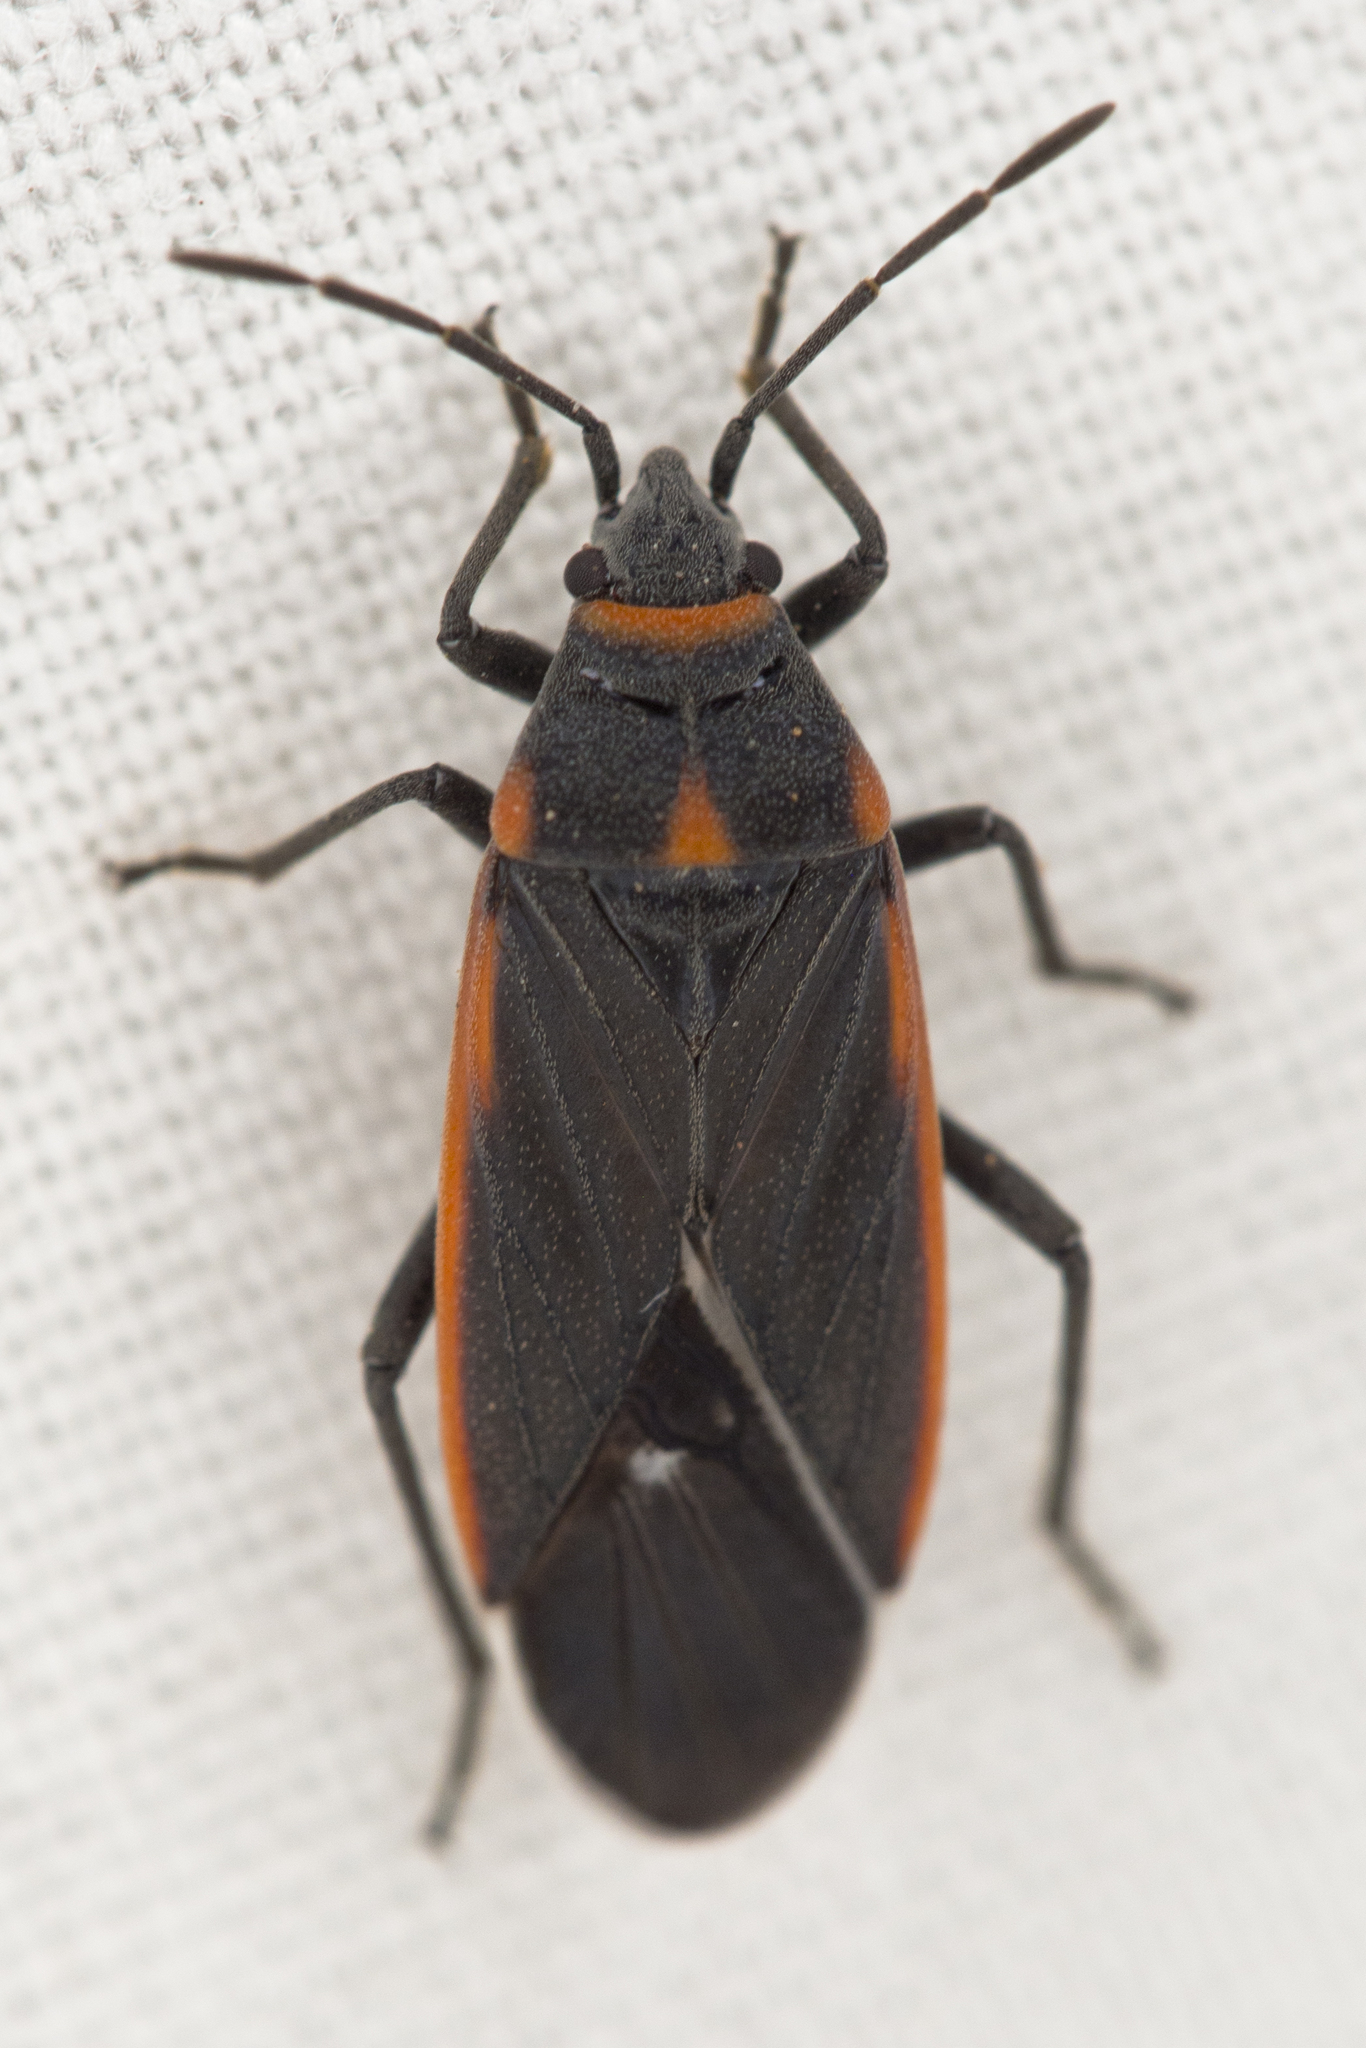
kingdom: Animalia
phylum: Arthropoda
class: Insecta
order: Hemiptera
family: Lygaeidae
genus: Melacoryphus
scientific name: Melacoryphus lateralis
